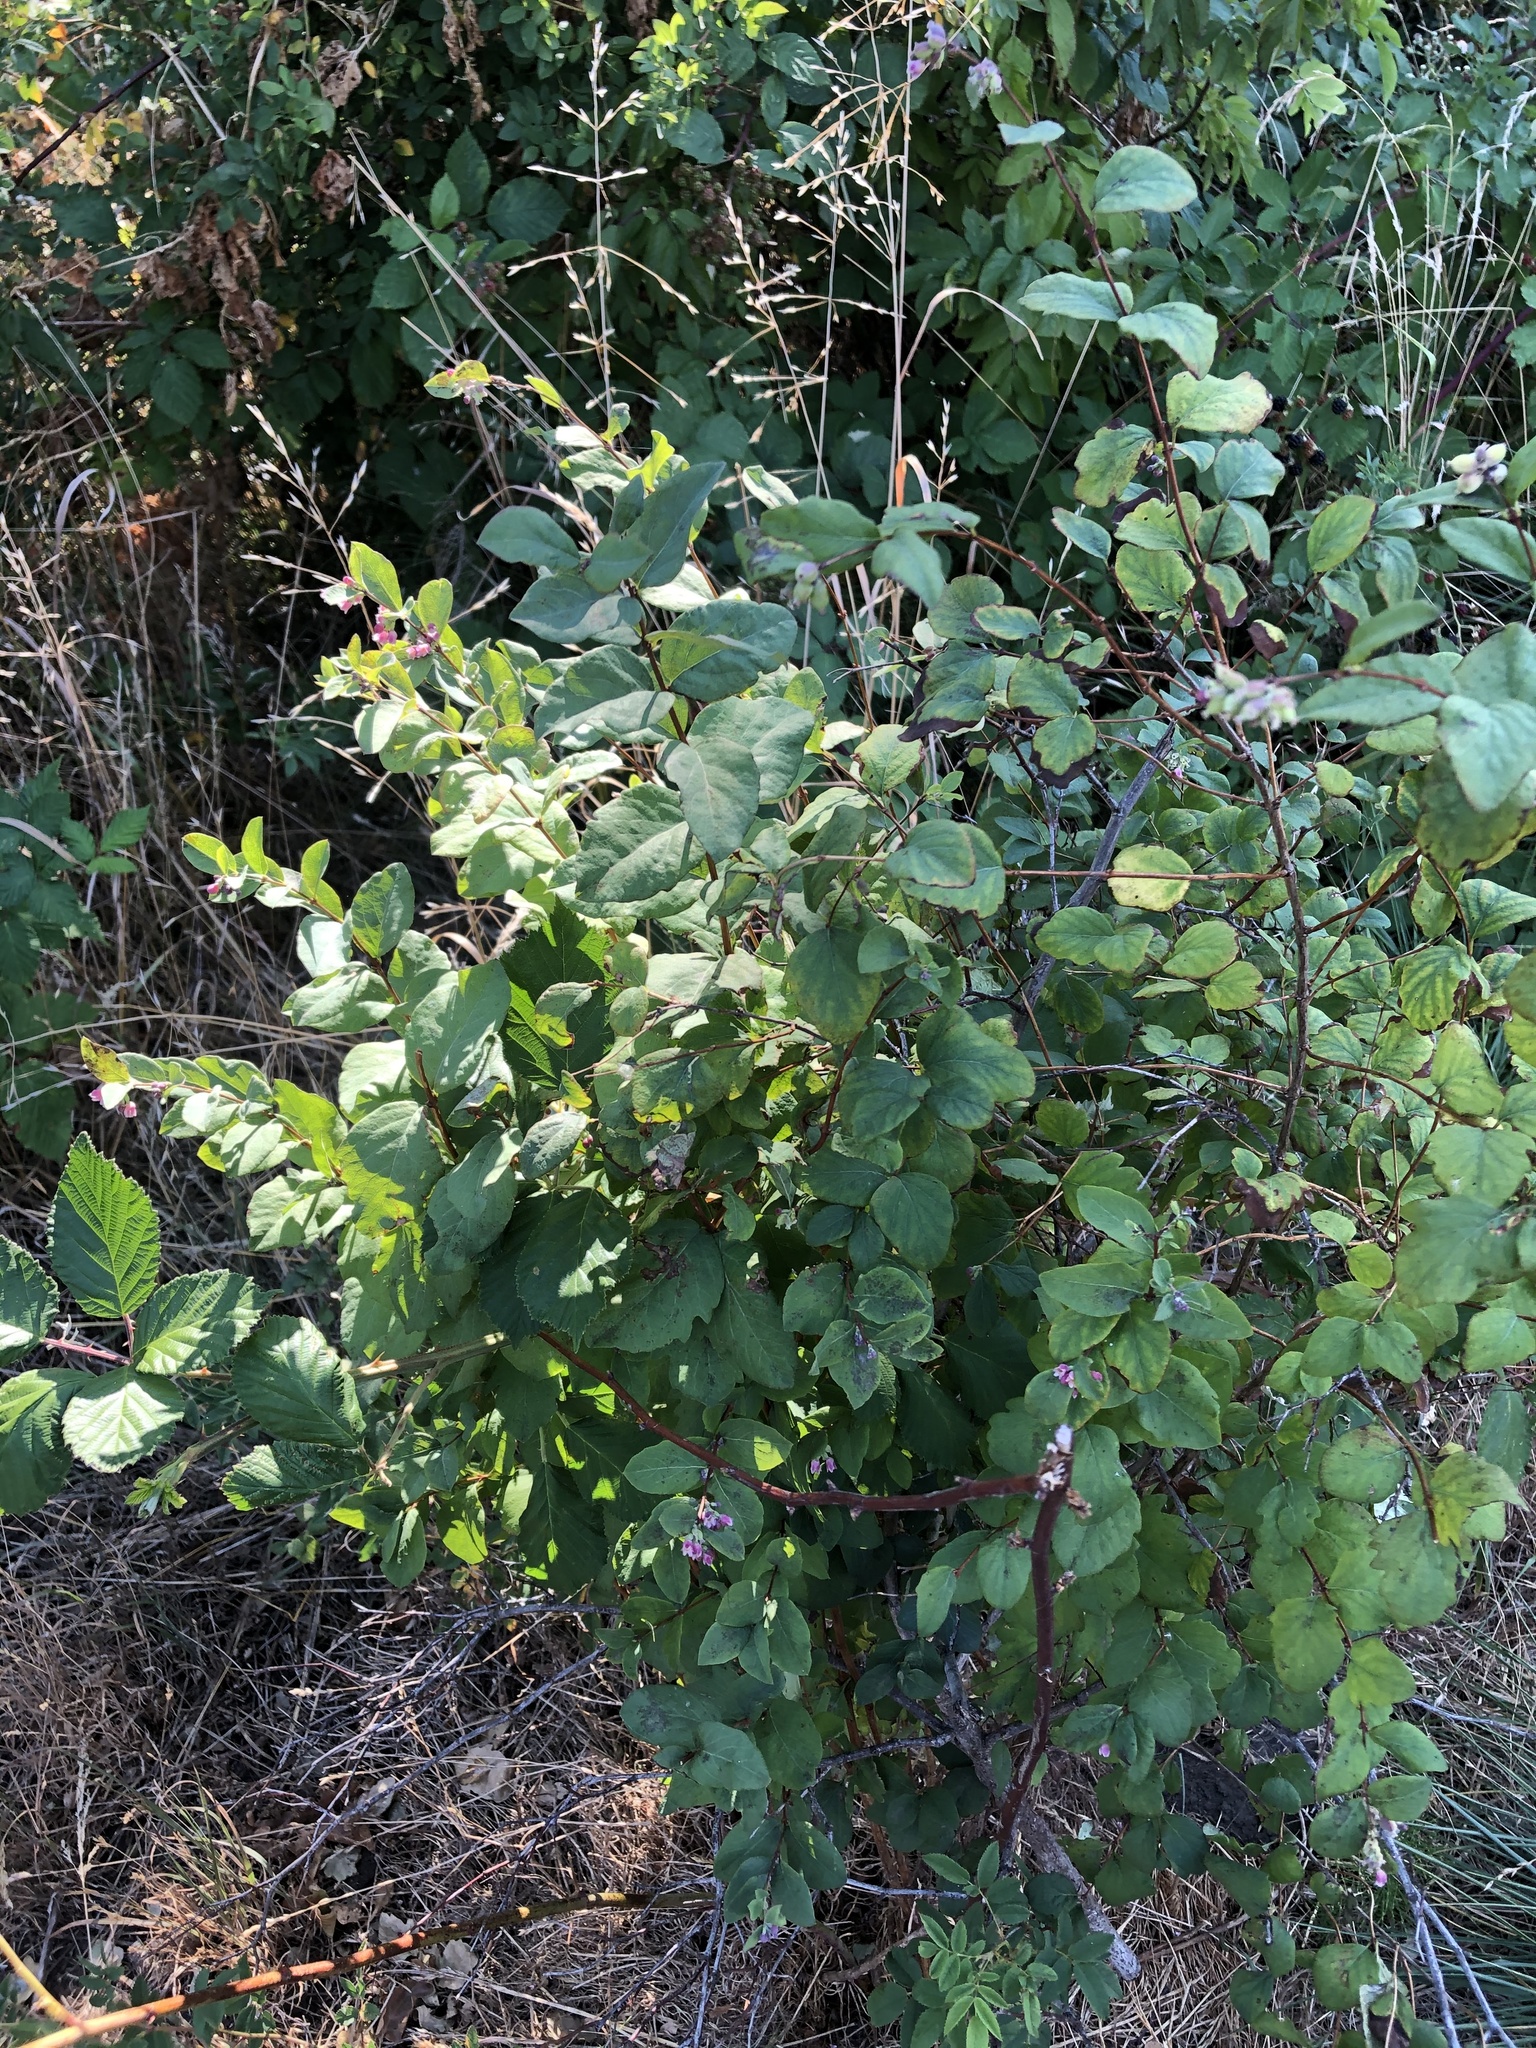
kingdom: Plantae
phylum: Tracheophyta
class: Magnoliopsida
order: Dipsacales
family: Caprifoliaceae
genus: Symphoricarpos
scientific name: Symphoricarpos albus
